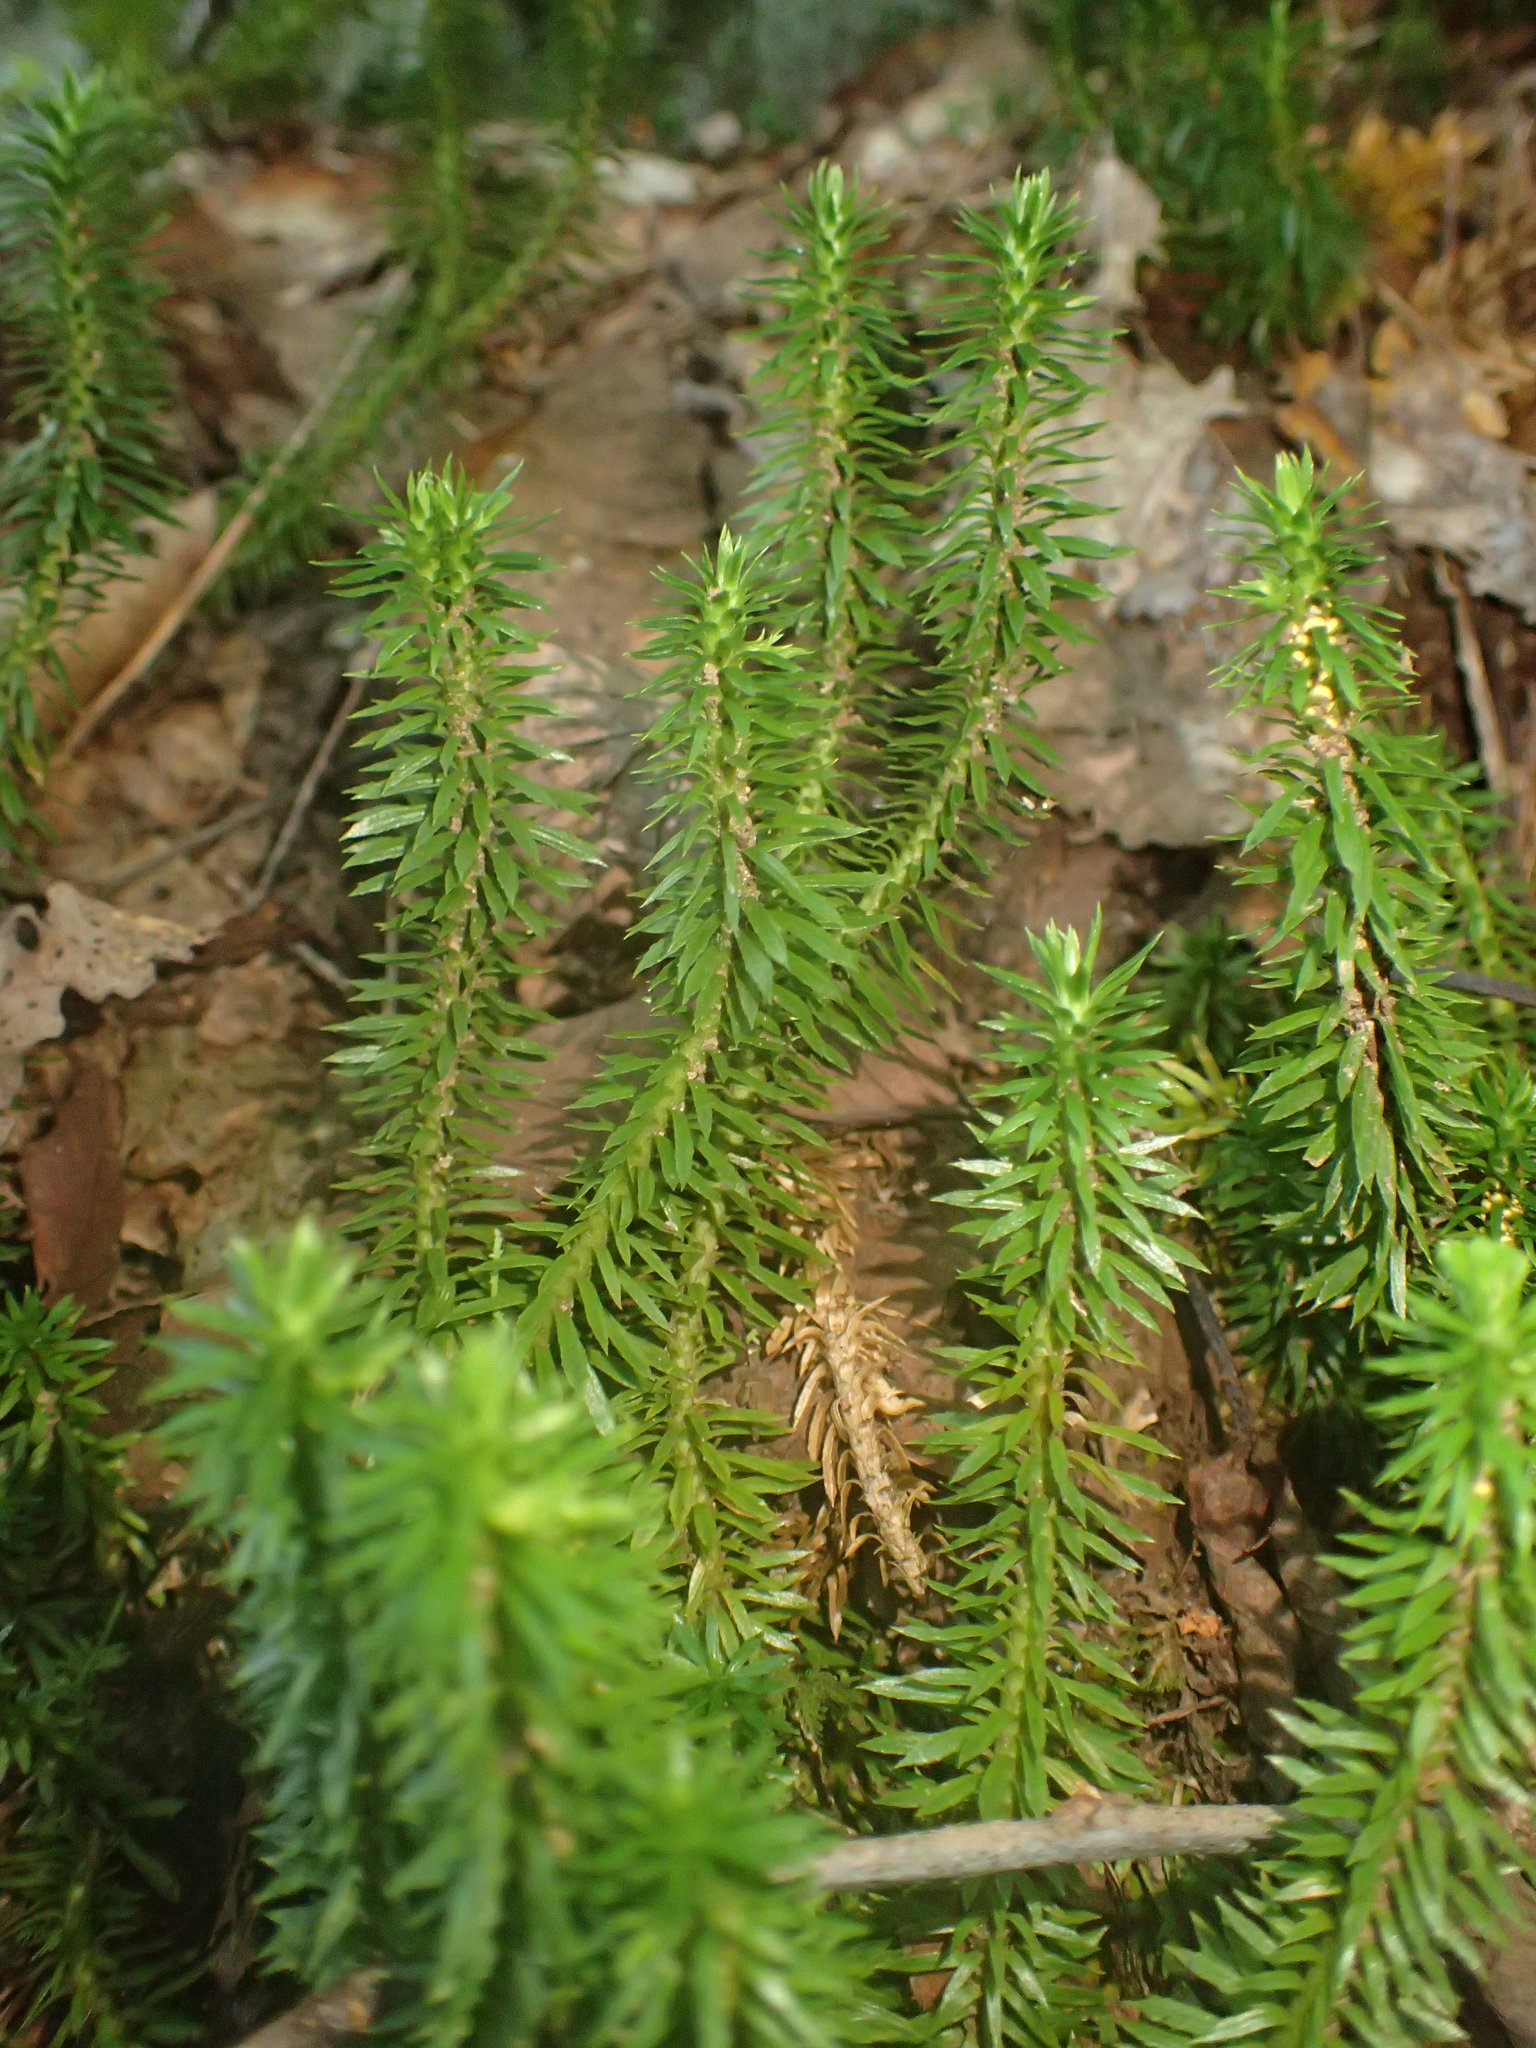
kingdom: Plantae
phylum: Tracheophyta
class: Lycopodiopsida
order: Lycopodiales
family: Lycopodiaceae
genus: Huperzia
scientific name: Huperzia lucidula
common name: Shining clubmoss
